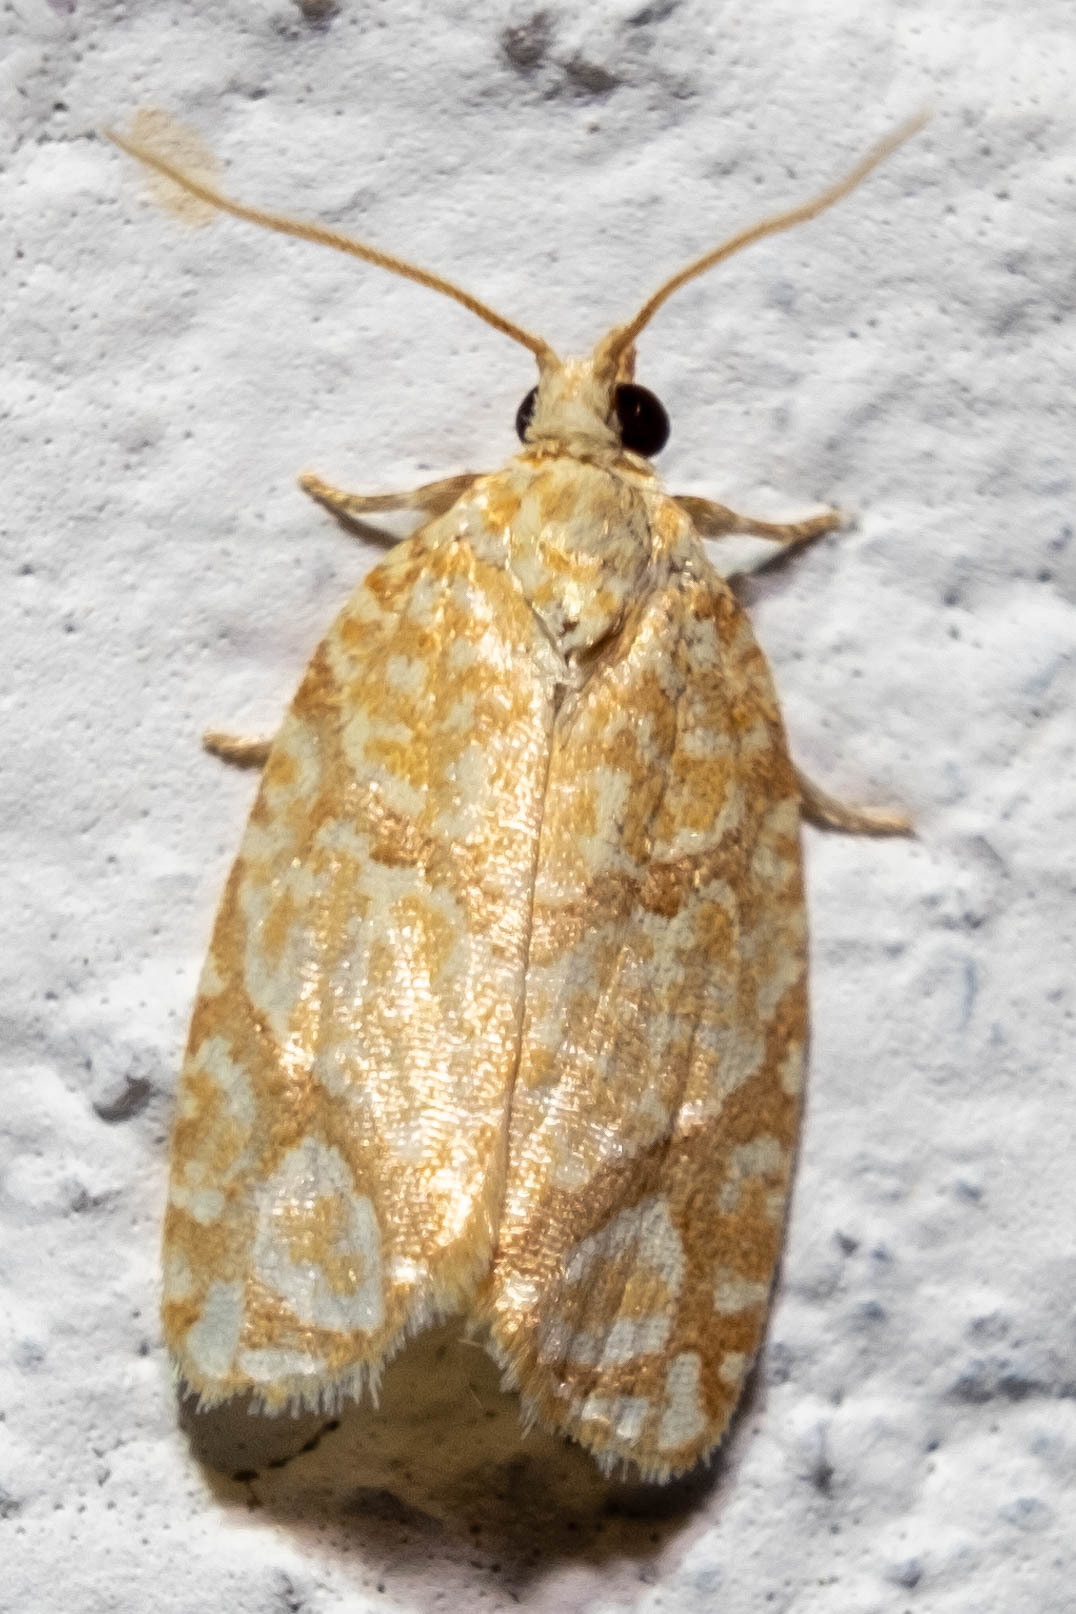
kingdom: Animalia
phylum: Arthropoda
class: Insecta
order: Lepidoptera
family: Tortricidae
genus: Argyrotaenia
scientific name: Argyrotaenia quercifoliana
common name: Yellow-winged oak leafroller moth
